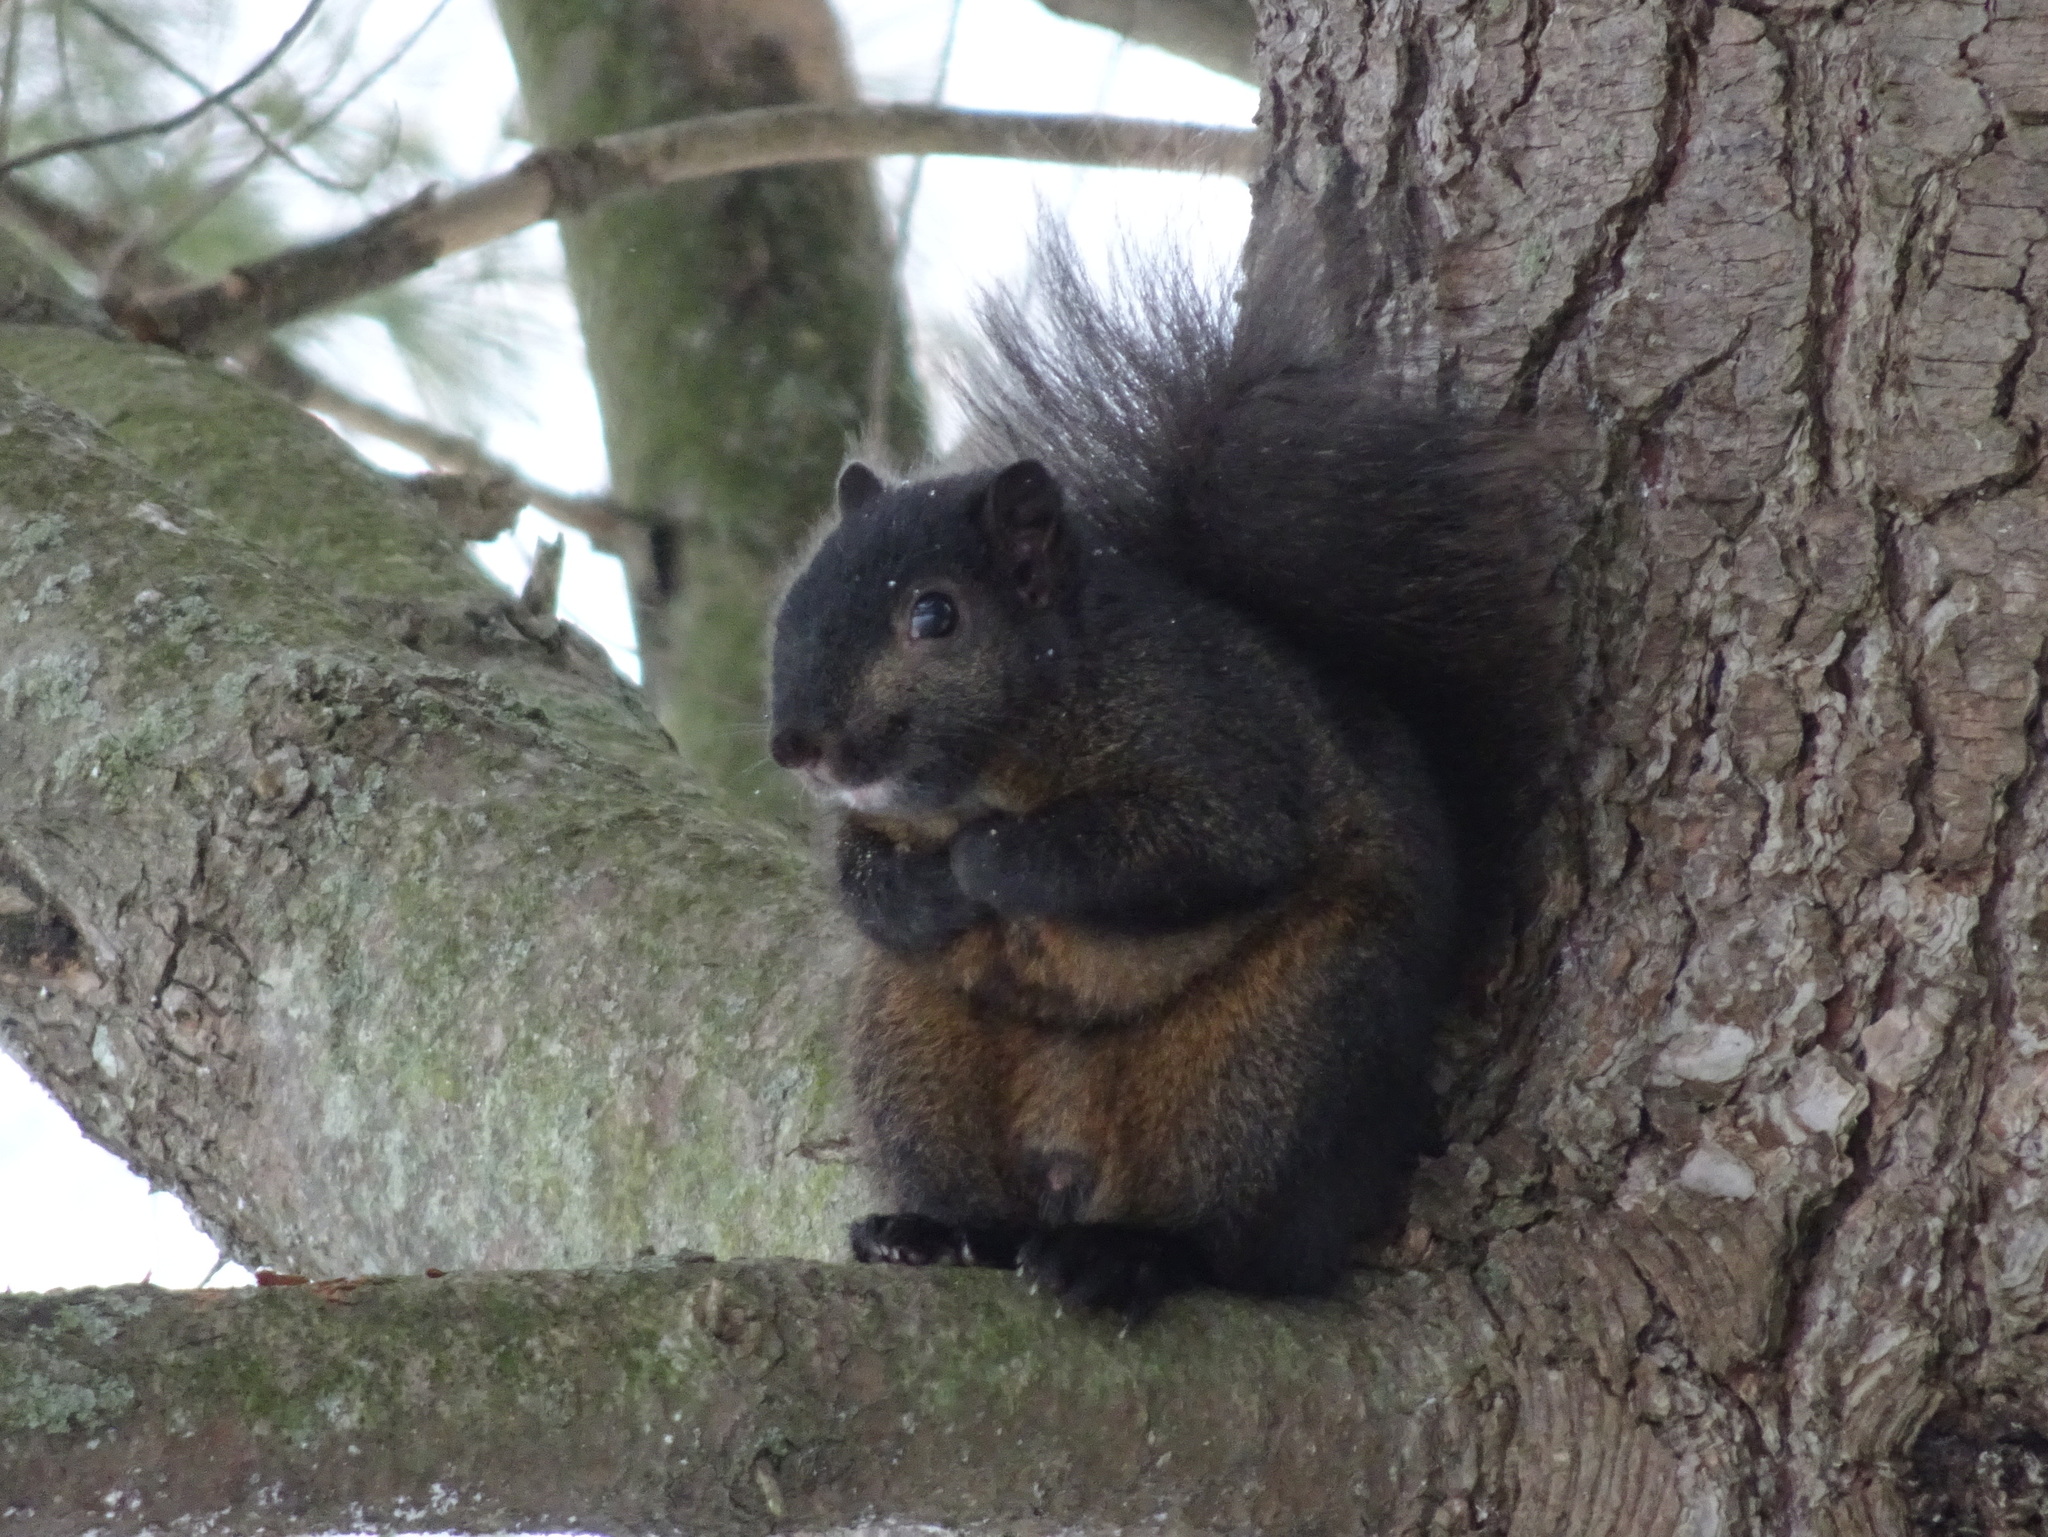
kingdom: Animalia
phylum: Chordata
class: Mammalia
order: Rodentia
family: Sciuridae
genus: Sciurus
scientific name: Sciurus carolinensis
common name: Eastern gray squirrel
